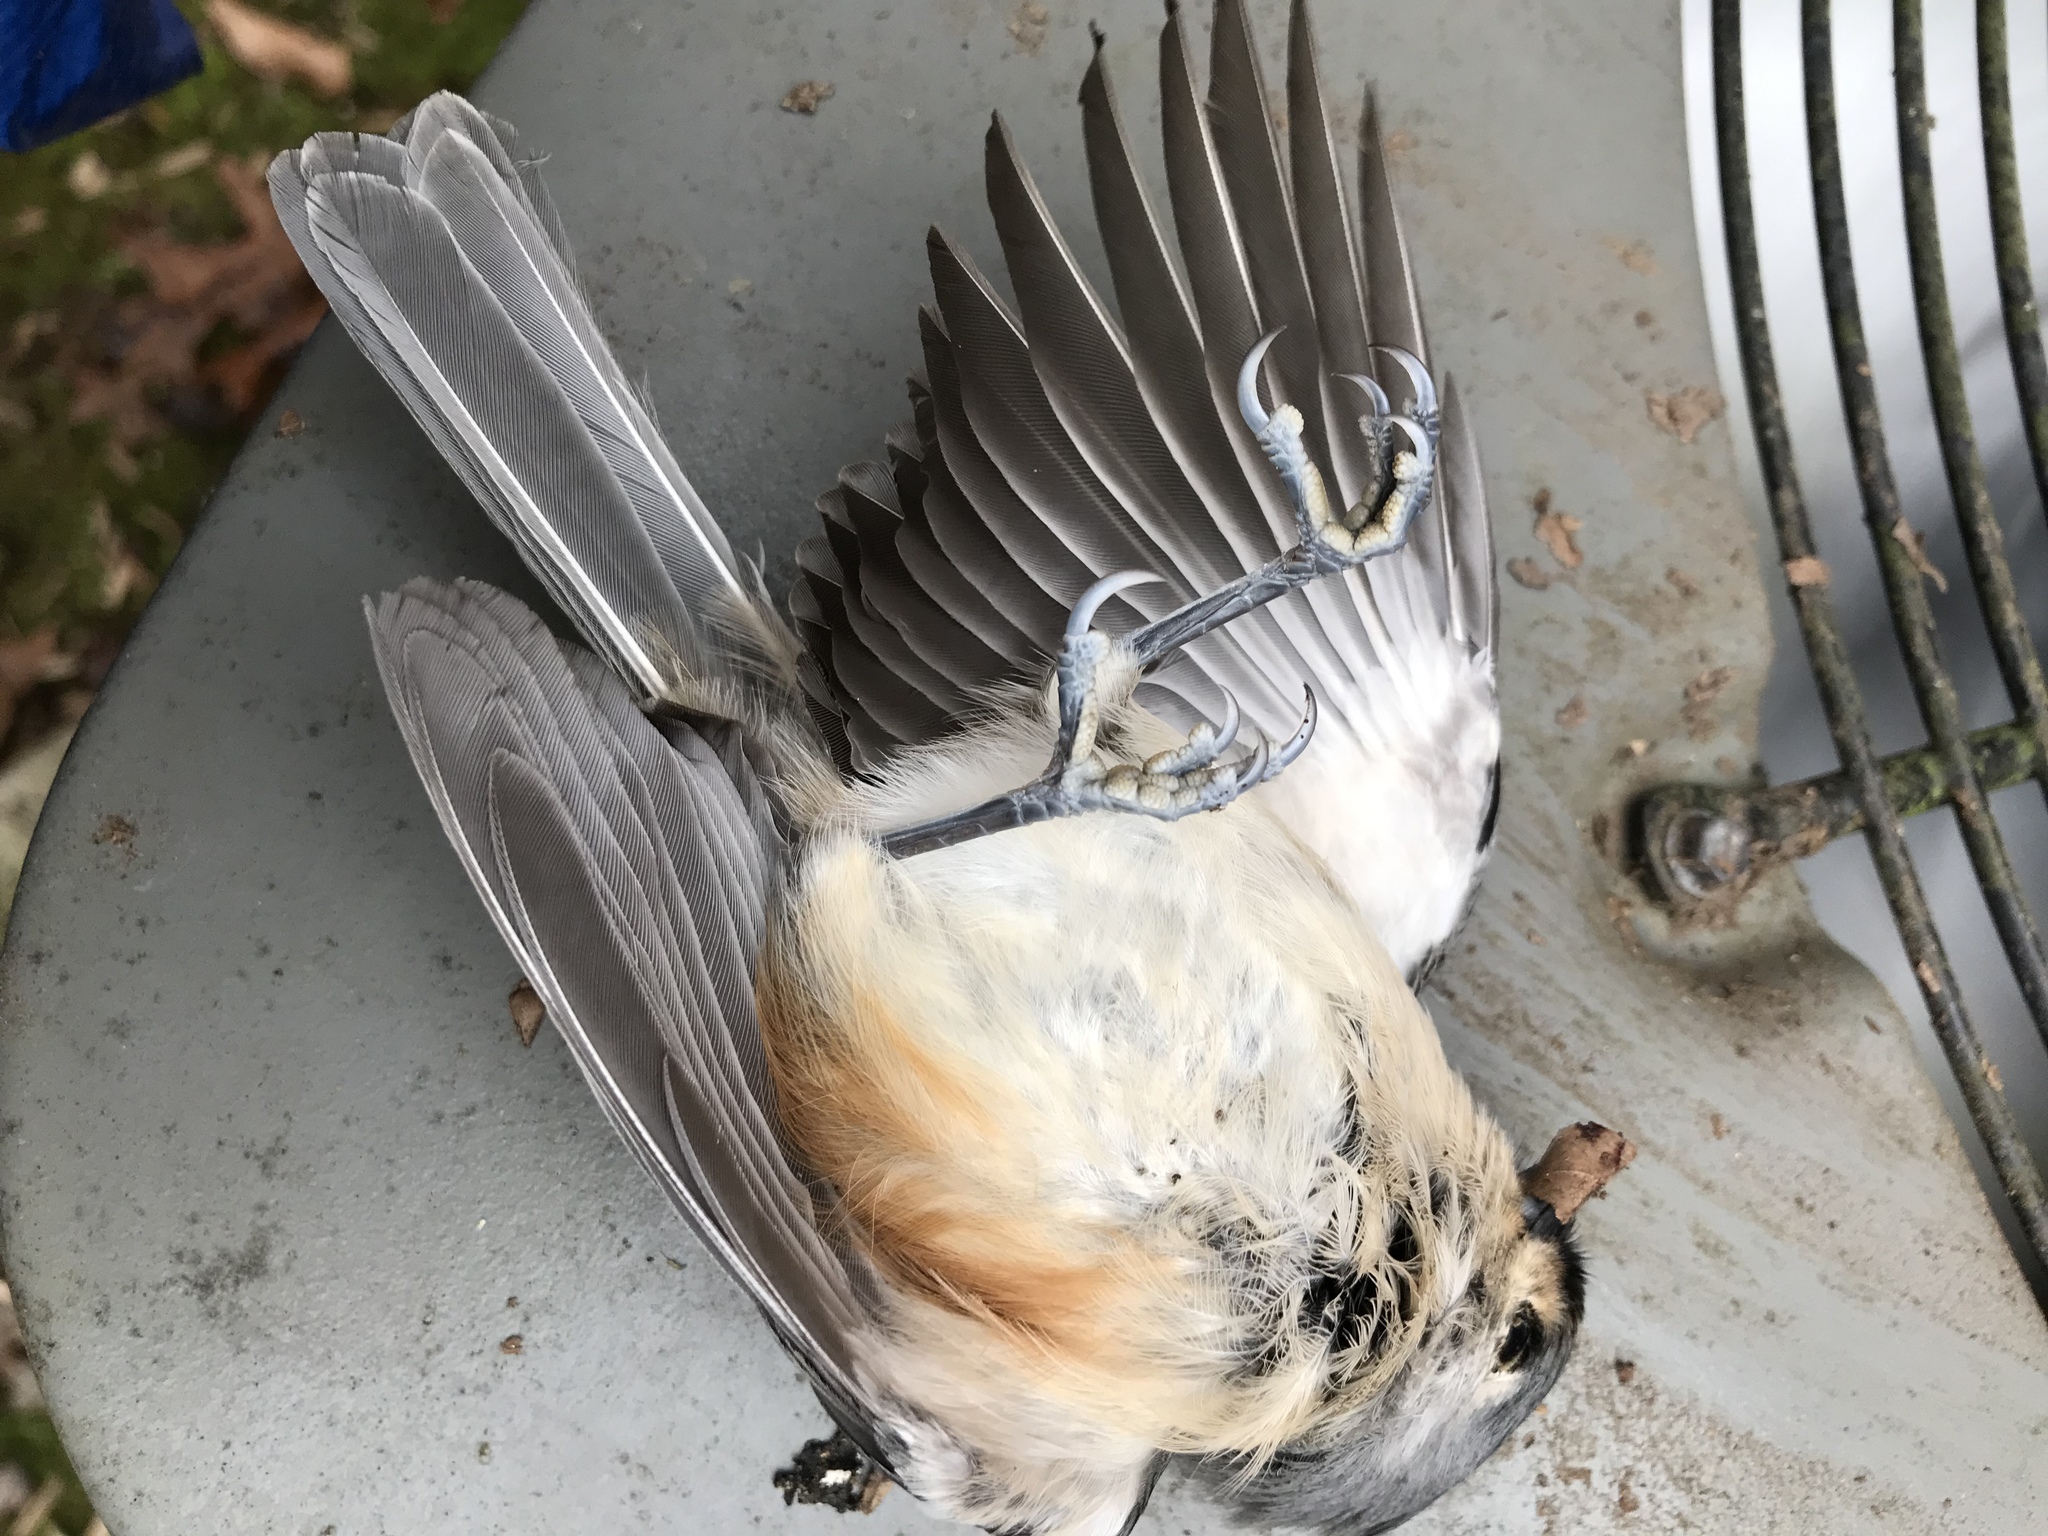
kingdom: Animalia
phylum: Chordata
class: Aves
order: Passeriformes
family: Paridae
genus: Baeolophus
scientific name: Baeolophus bicolor
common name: Tufted titmouse
